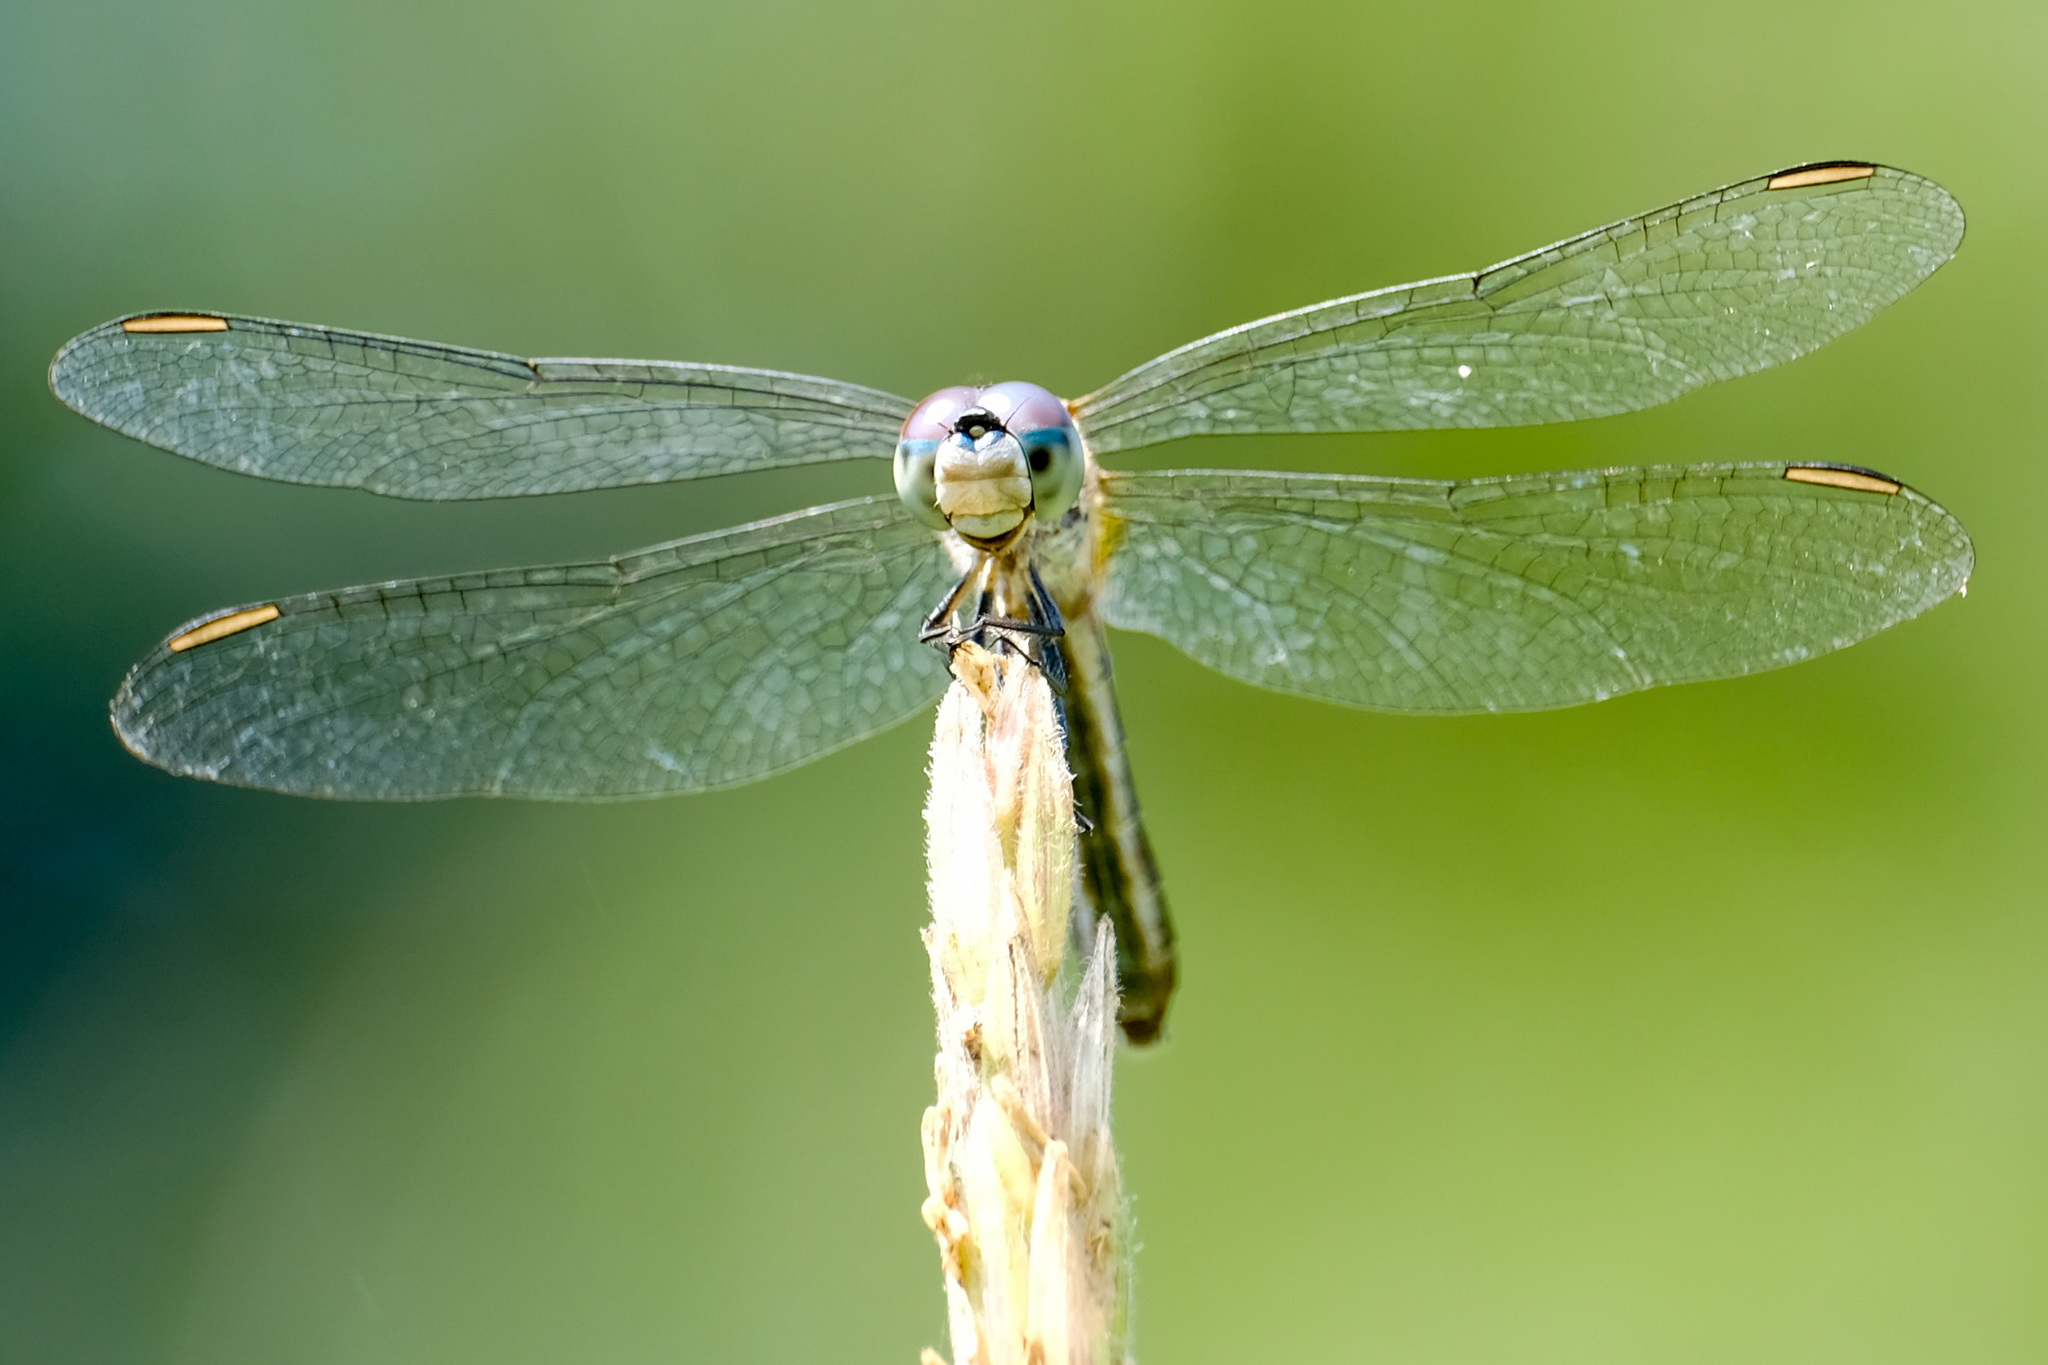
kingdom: Animalia
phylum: Arthropoda
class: Insecta
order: Odonata
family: Libellulidae
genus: Pachydiplax
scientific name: Pachydiplax longipennis
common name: Blue dasher
